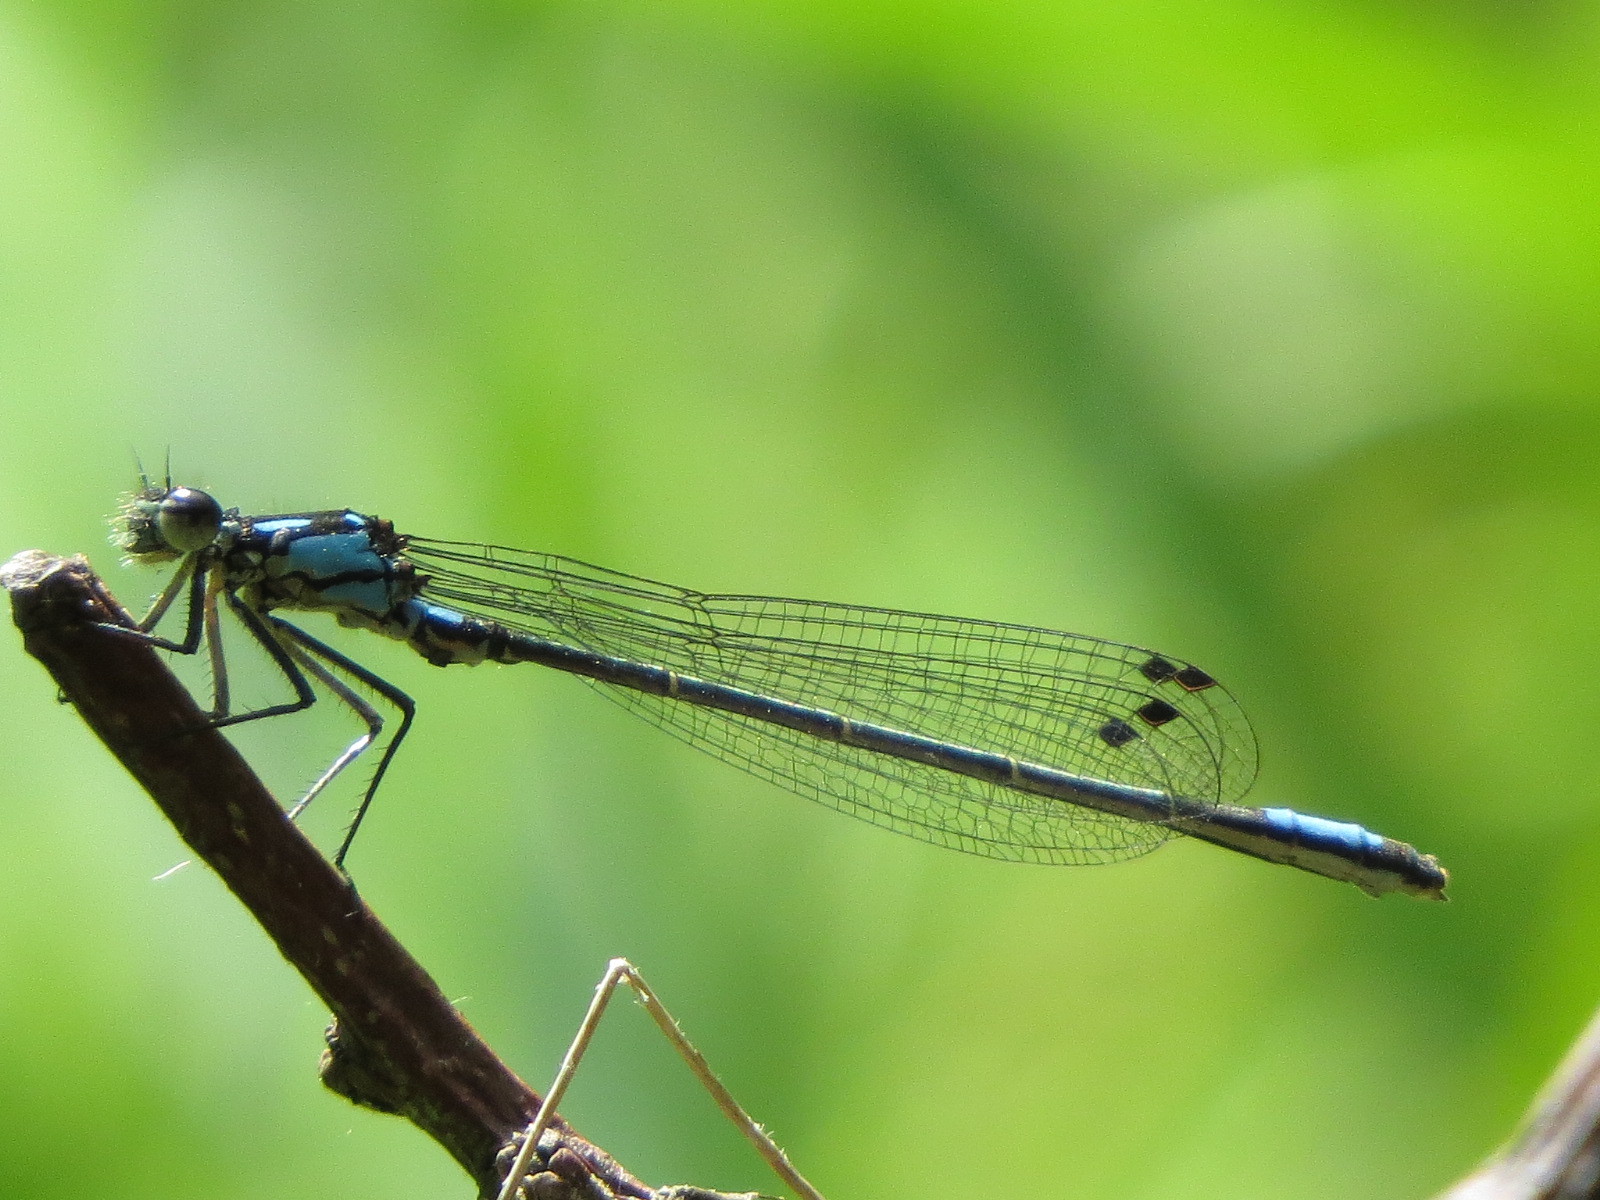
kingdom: Animalia
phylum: Arthropoda
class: Insecta
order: Odonata
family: Coenagrionidae
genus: Zoniagrion
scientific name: Zoniagrion exclamationis
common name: Exclamation damsel
